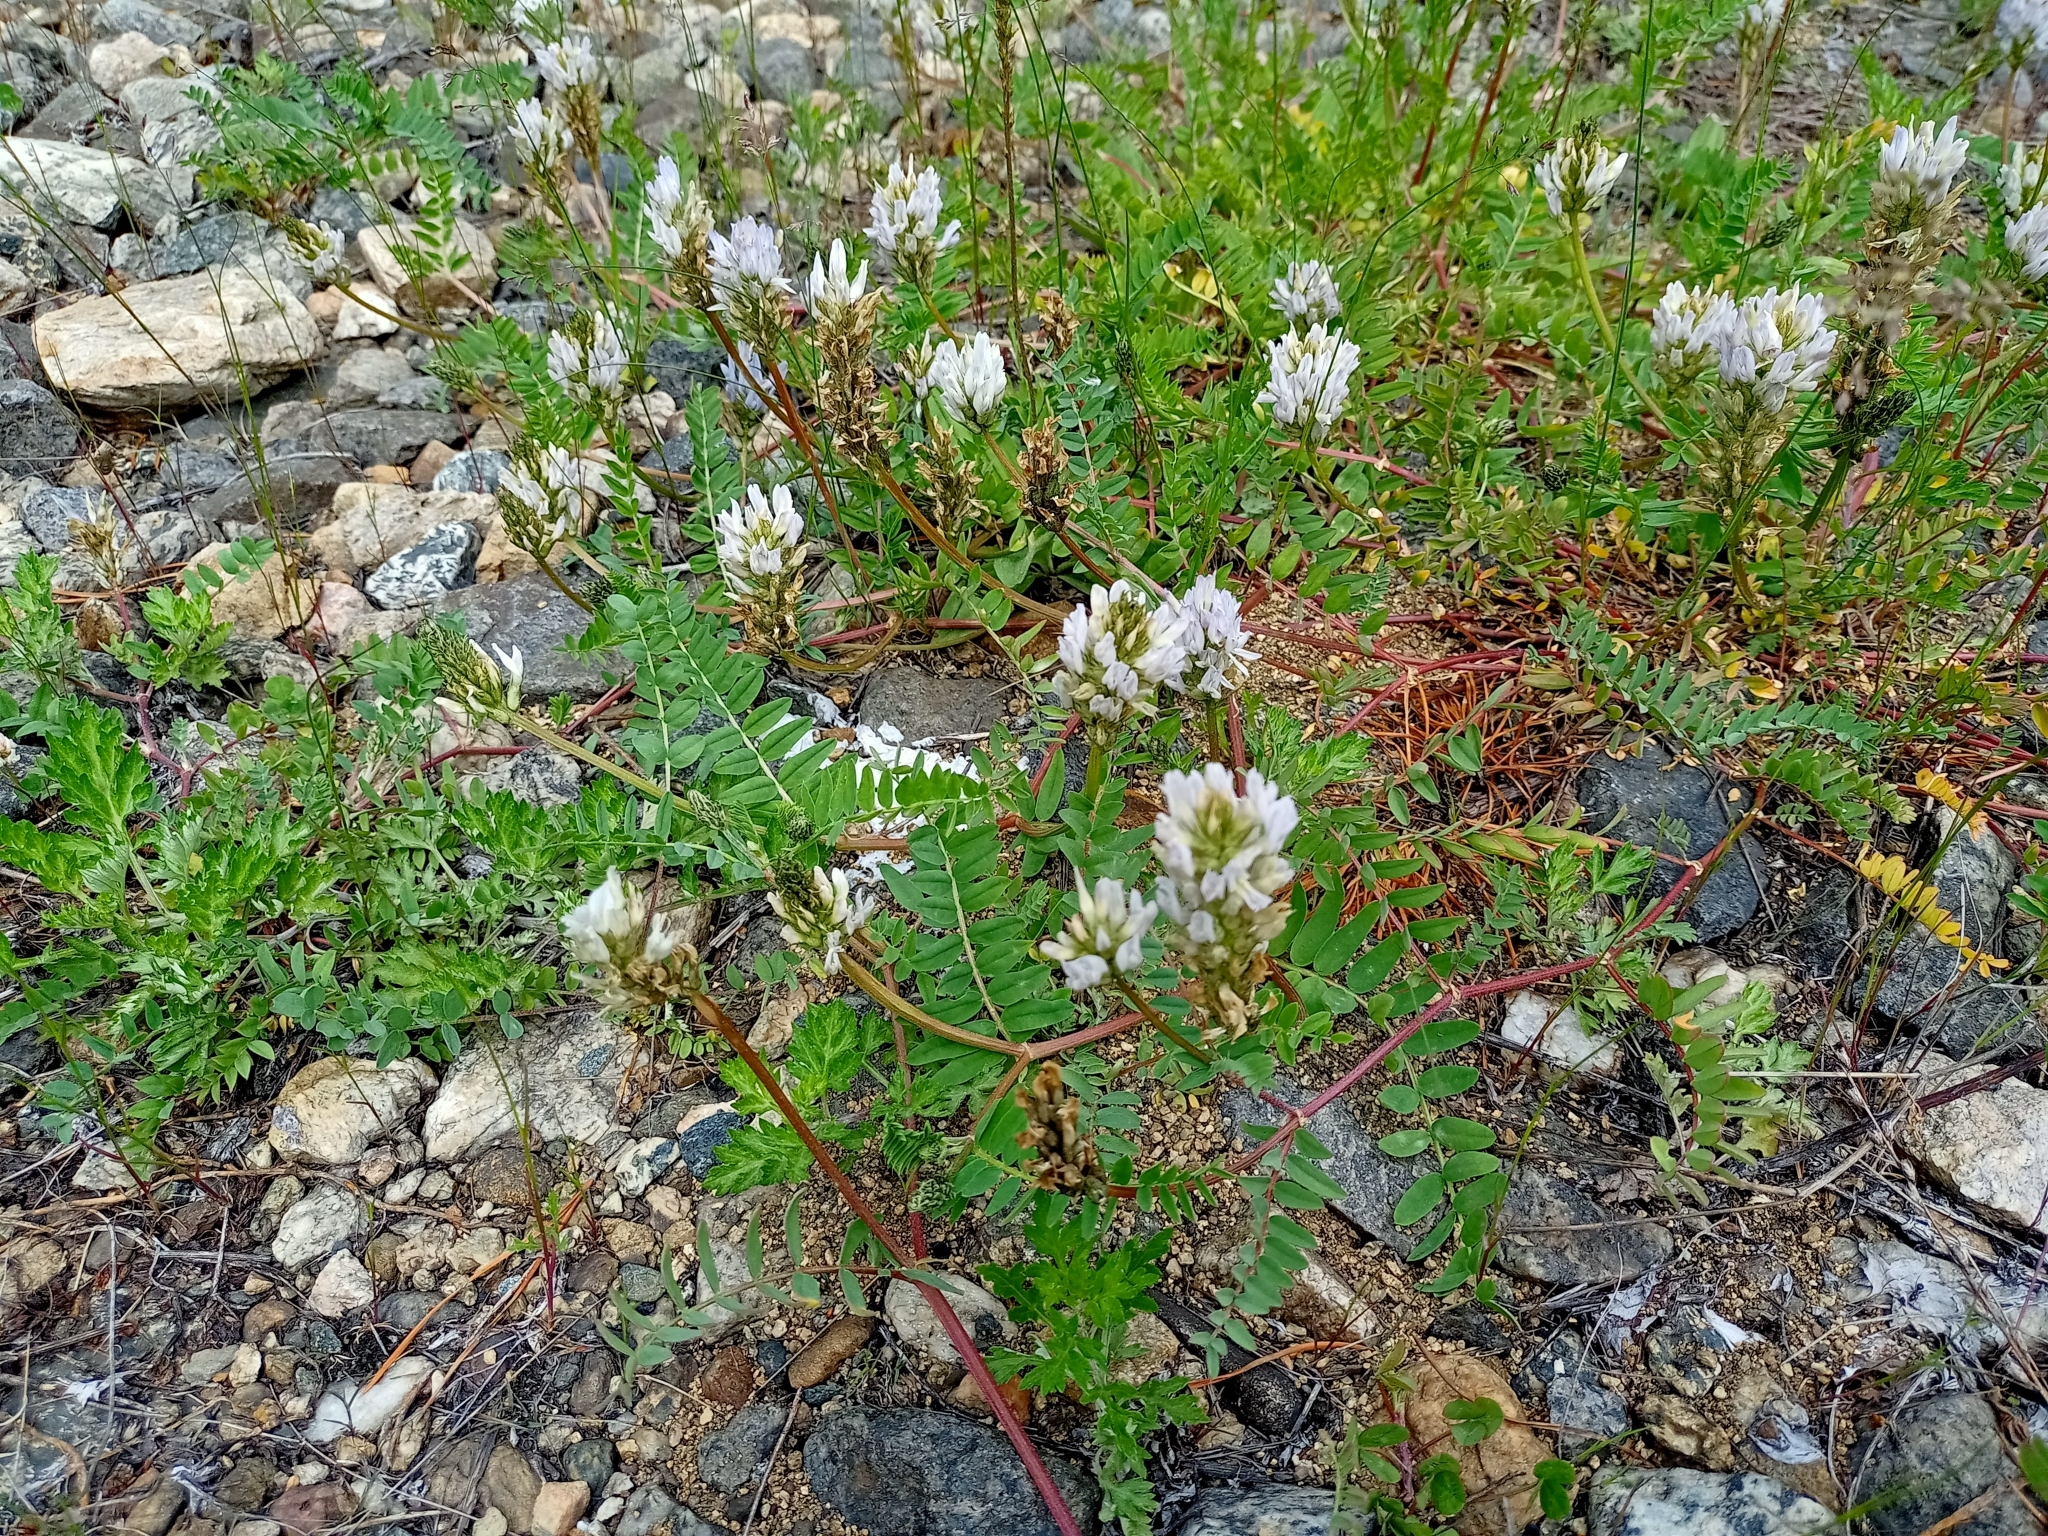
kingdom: Plantae
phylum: Tracheophyta
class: Magnoliopsida
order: Fabales
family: Fabaceae
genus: Astragalus
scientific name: Astragalus laxmannii
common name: Laxmann's milk-vetch
